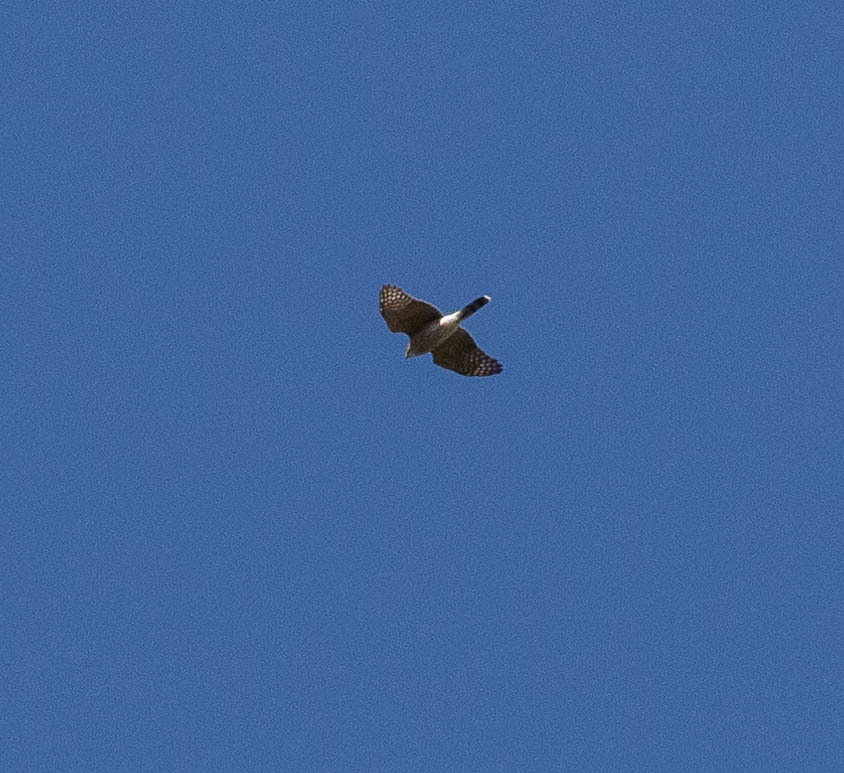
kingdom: Animalia
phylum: Chordata
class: Aves
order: Accipitriformes
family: Accipitridae
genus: Accipiter
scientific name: Accipiter striatus
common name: Sharp-shinned hawk
